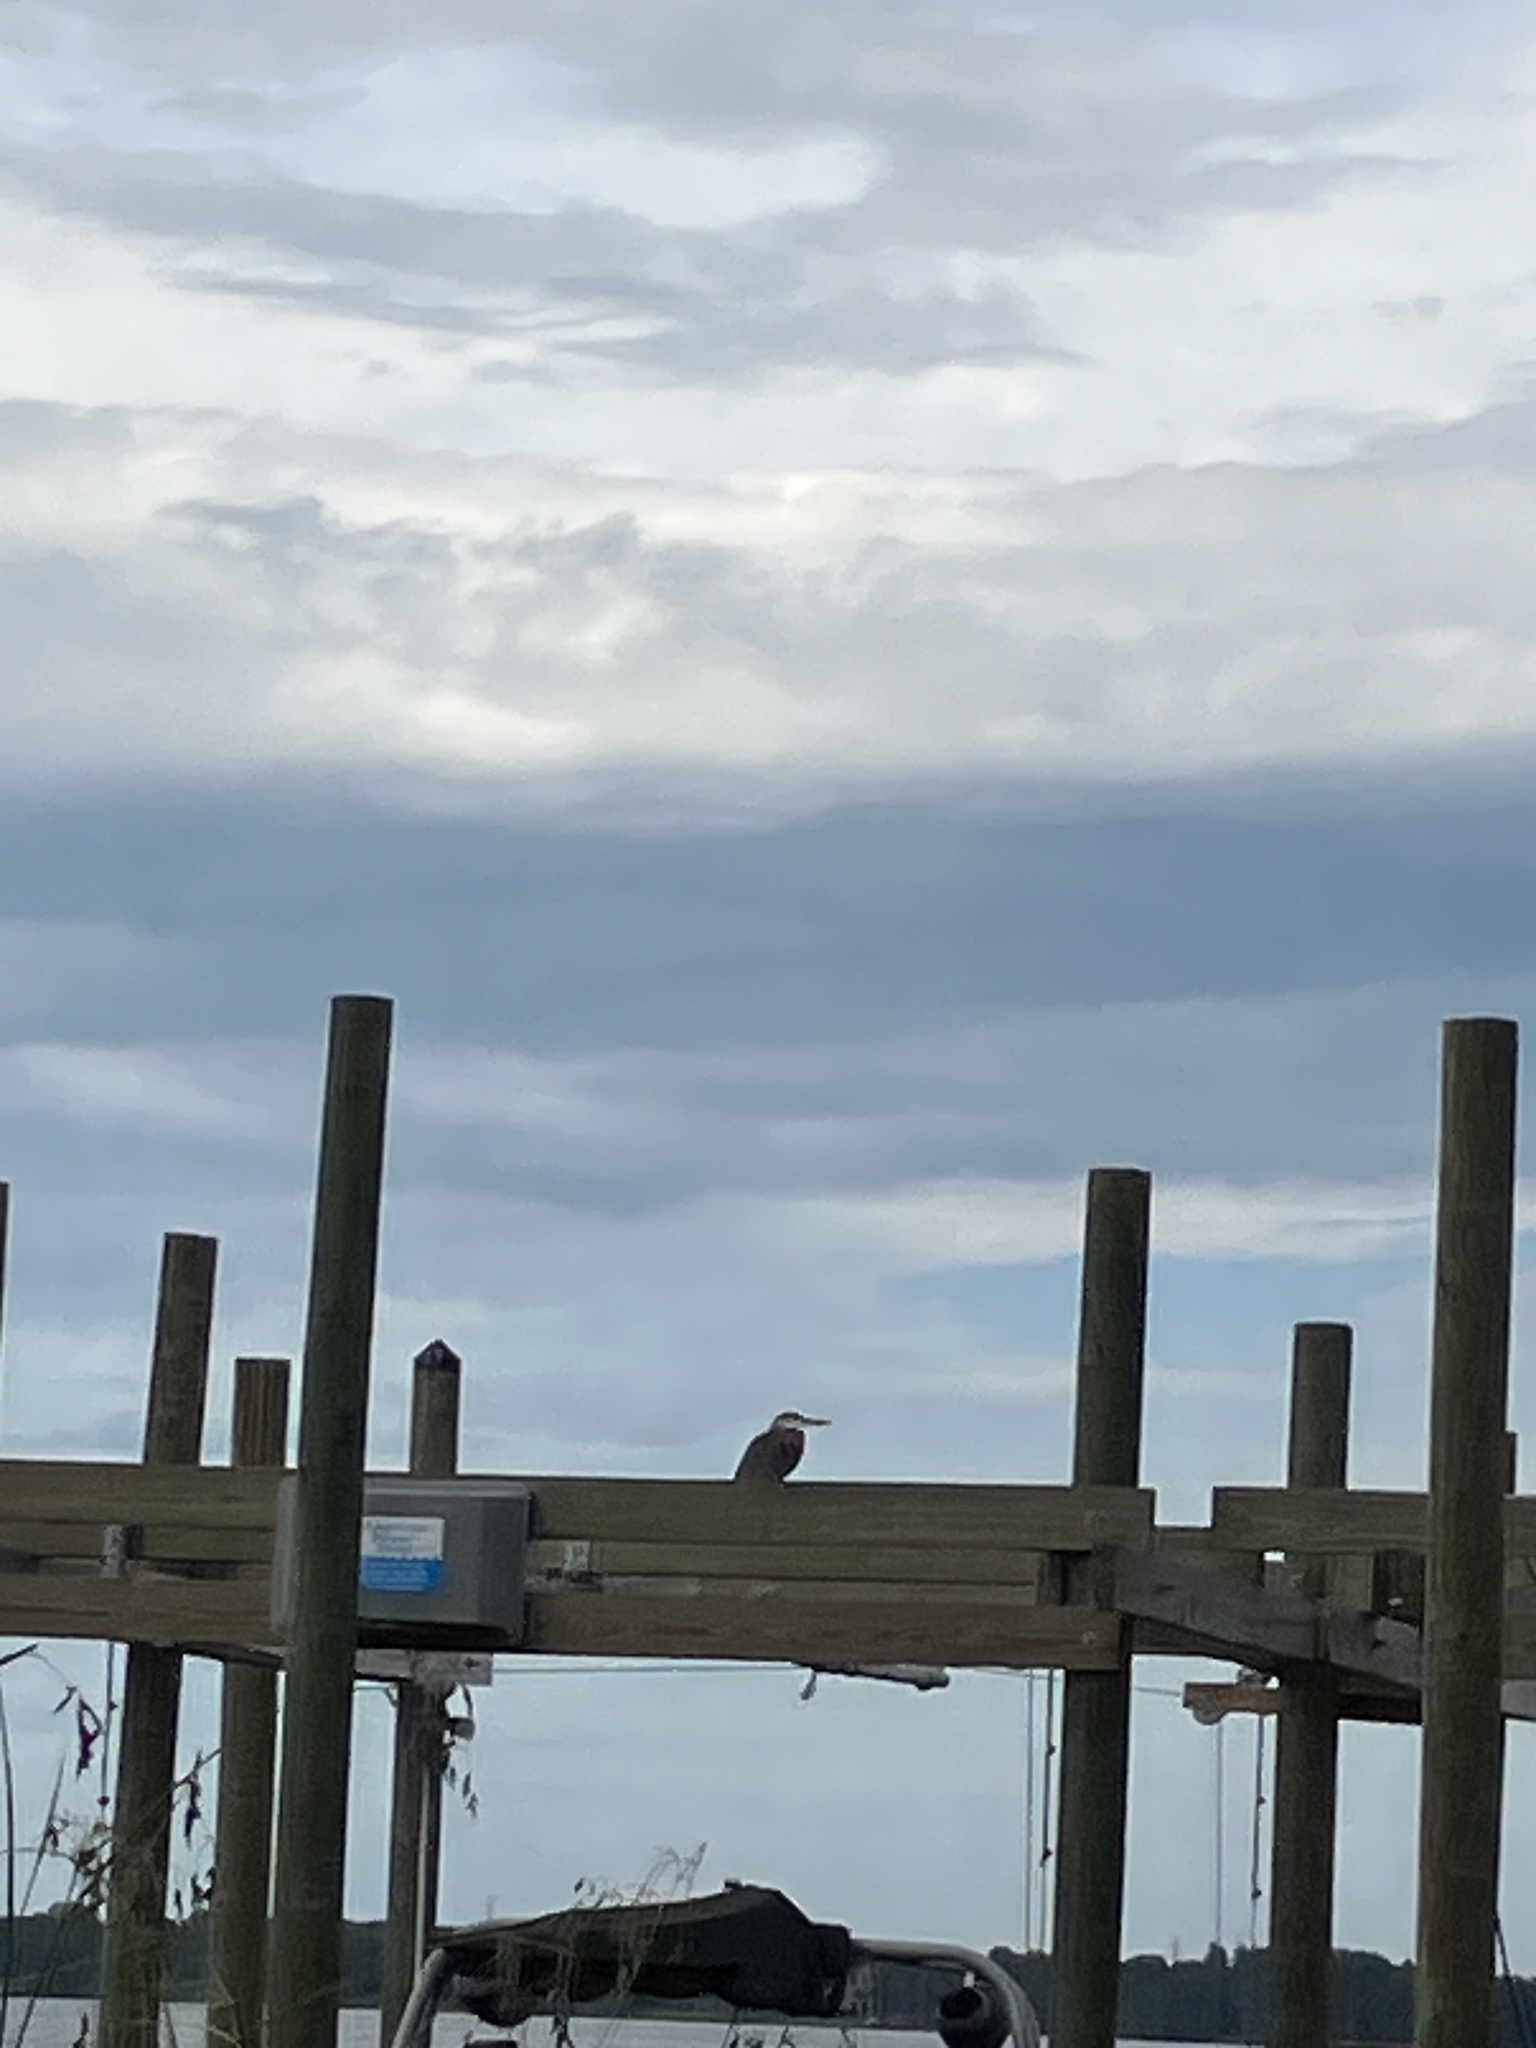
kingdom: Animalia
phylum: Chordata
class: Aves
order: Pelecaniformes
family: Ardeidae
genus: Ardea
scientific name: Ardea herodias
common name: Great blue heron
